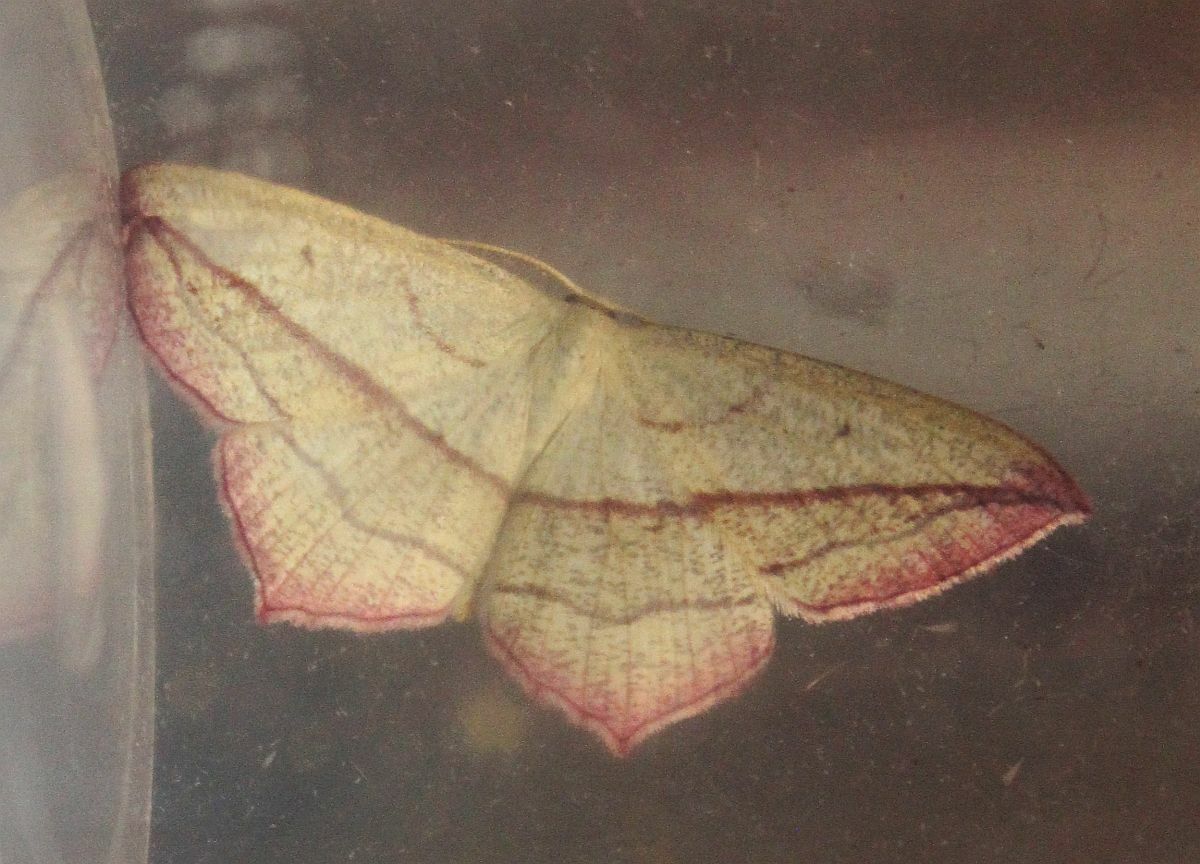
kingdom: Animalia
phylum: Arthropoda
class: Insecta
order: Lepidoptera
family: Geometridae
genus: Timandra
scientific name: Timandra comae
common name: Blood-vein
